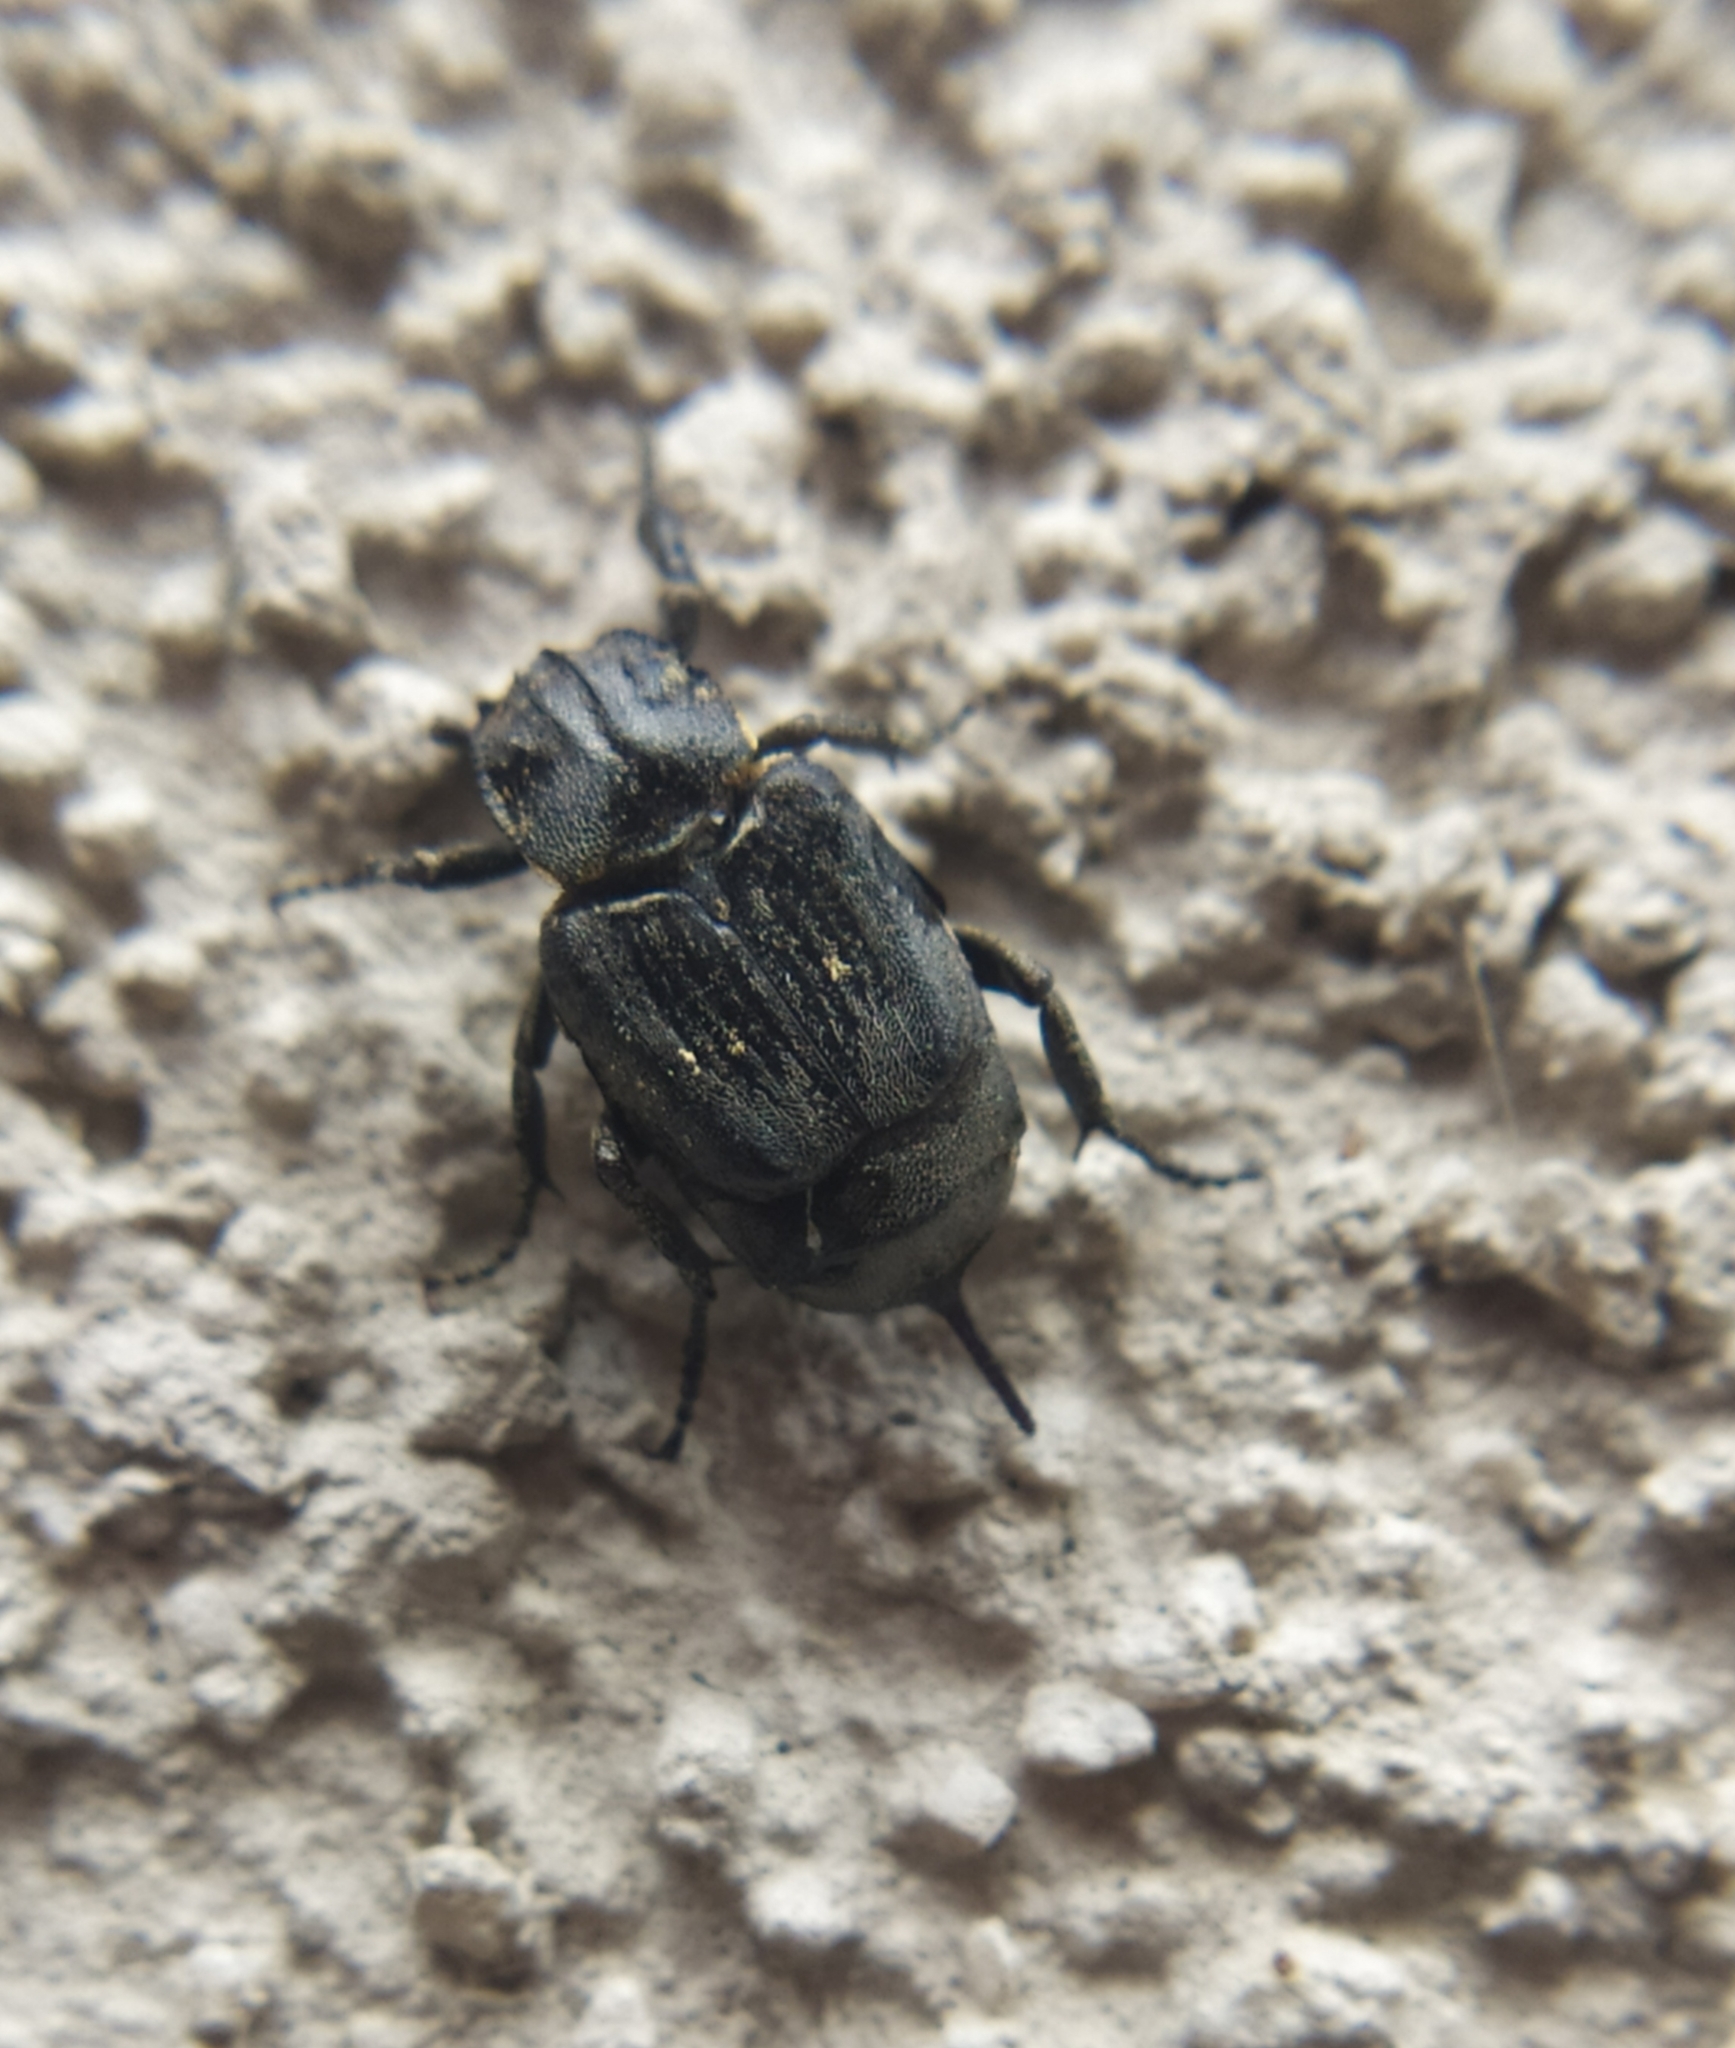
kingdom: Animalia
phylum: Arthropoda
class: Insecta
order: Coleoptera
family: Scarabaeidae
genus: Valgus
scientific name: Valgus hemipterus
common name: Bug flower chafer
